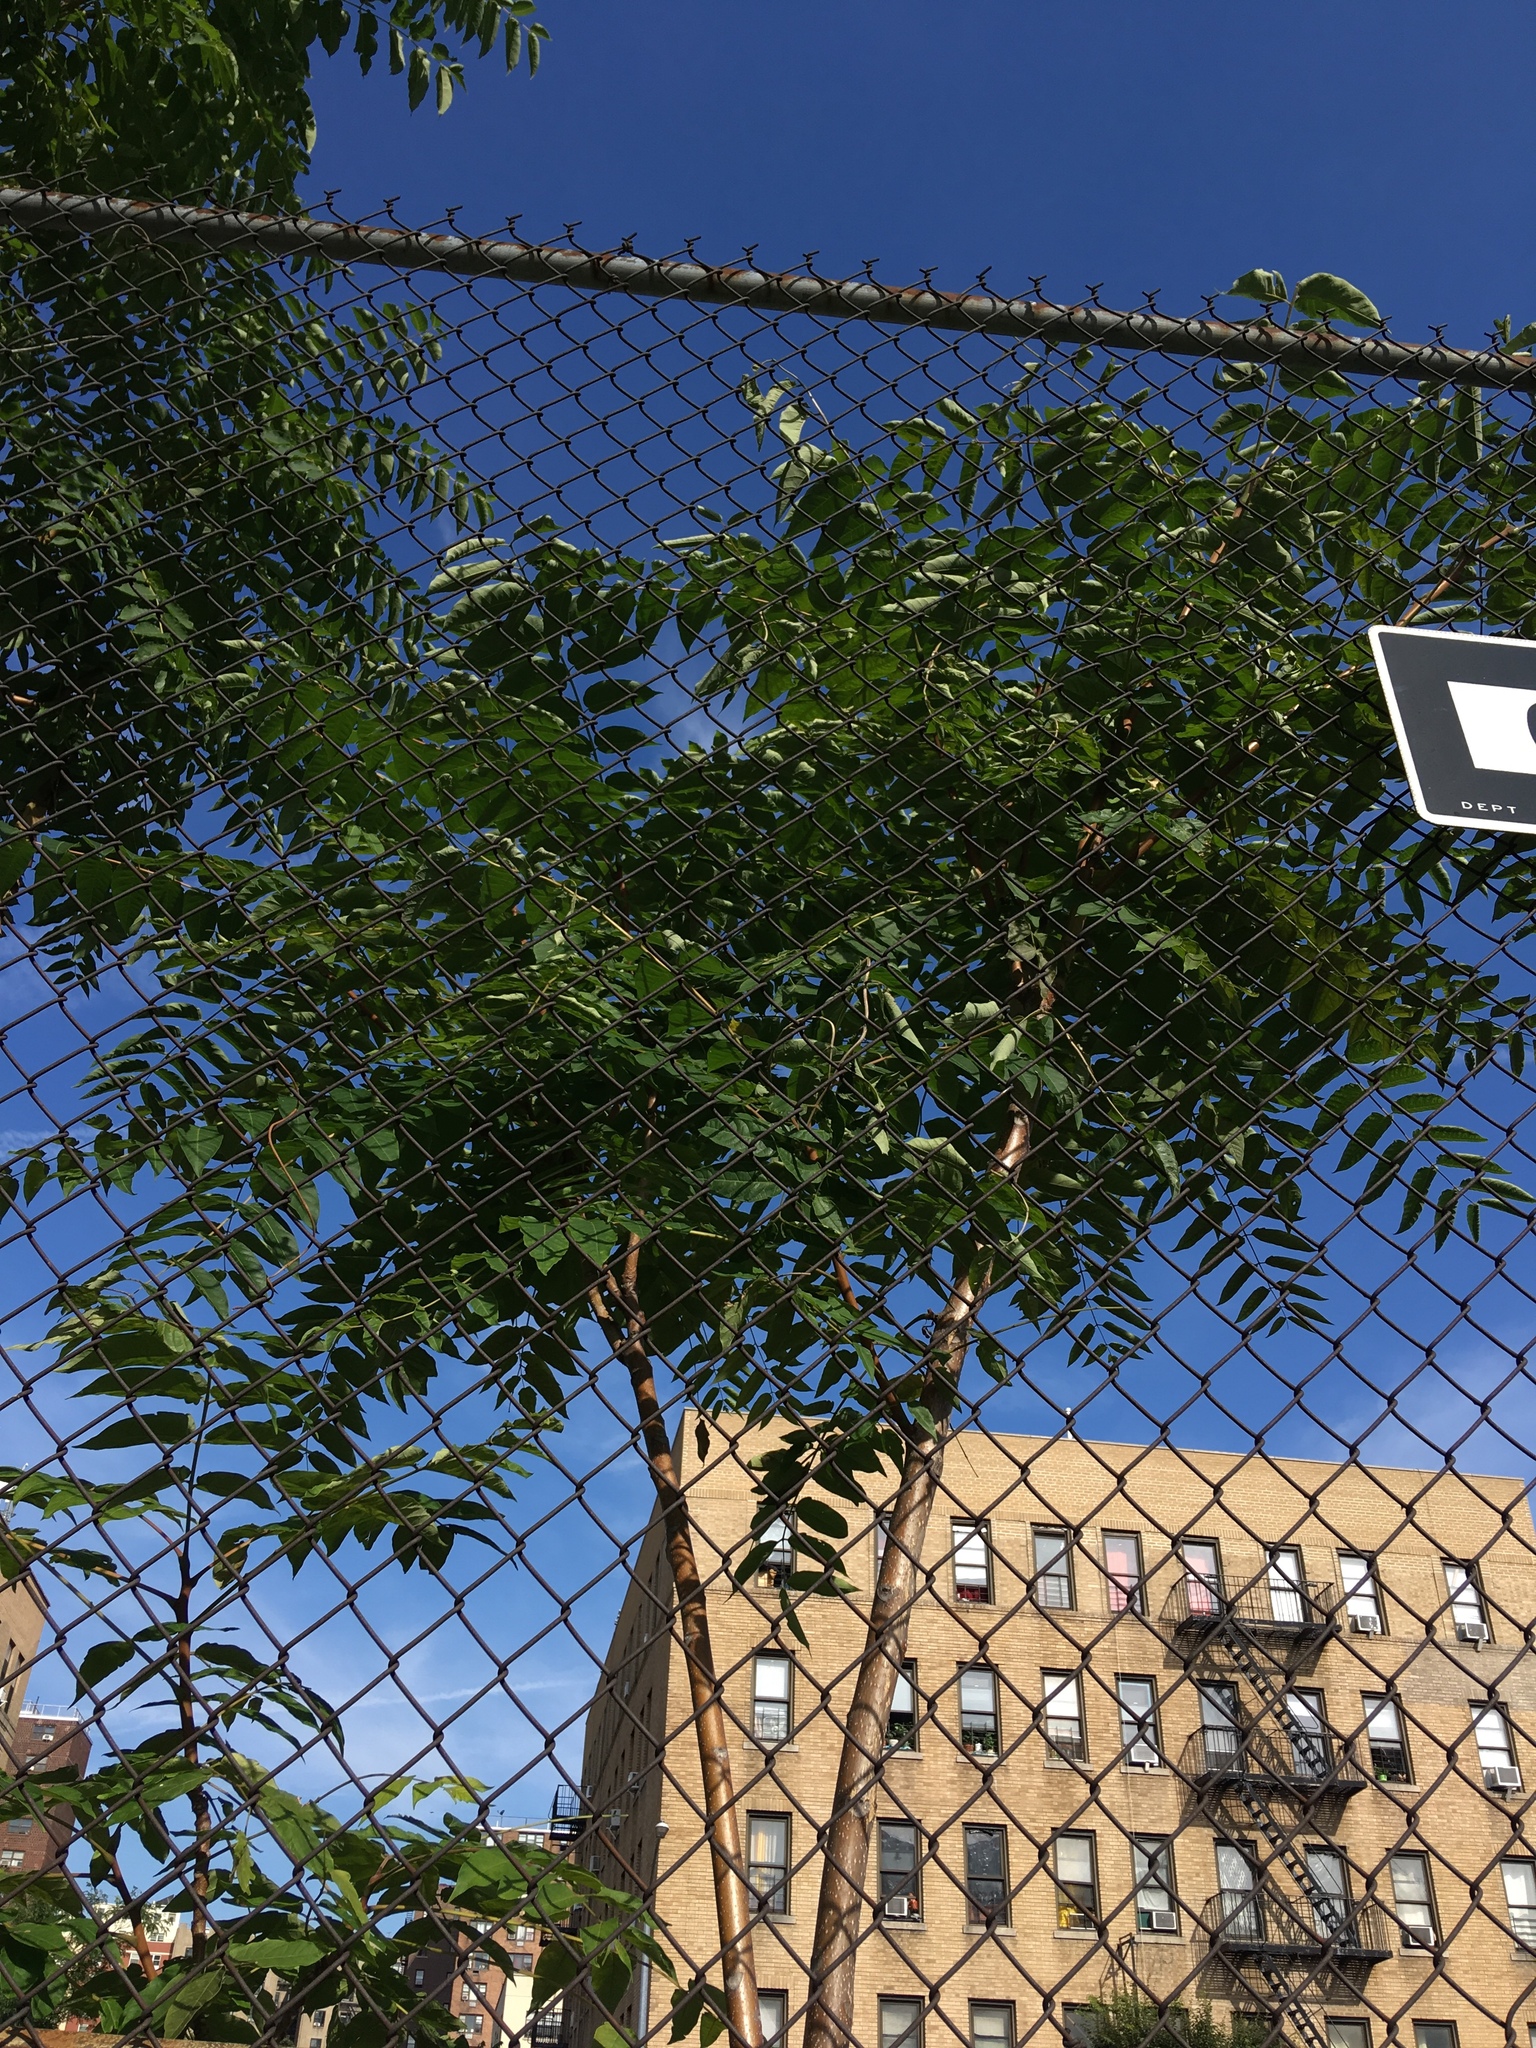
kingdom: Plantae
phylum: Tracheophyta
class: Magnoliopsida
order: Sapindales
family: Simaroubaceae
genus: Ailanthus
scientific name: Ailanthus altissima
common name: Tree-of-heaven
